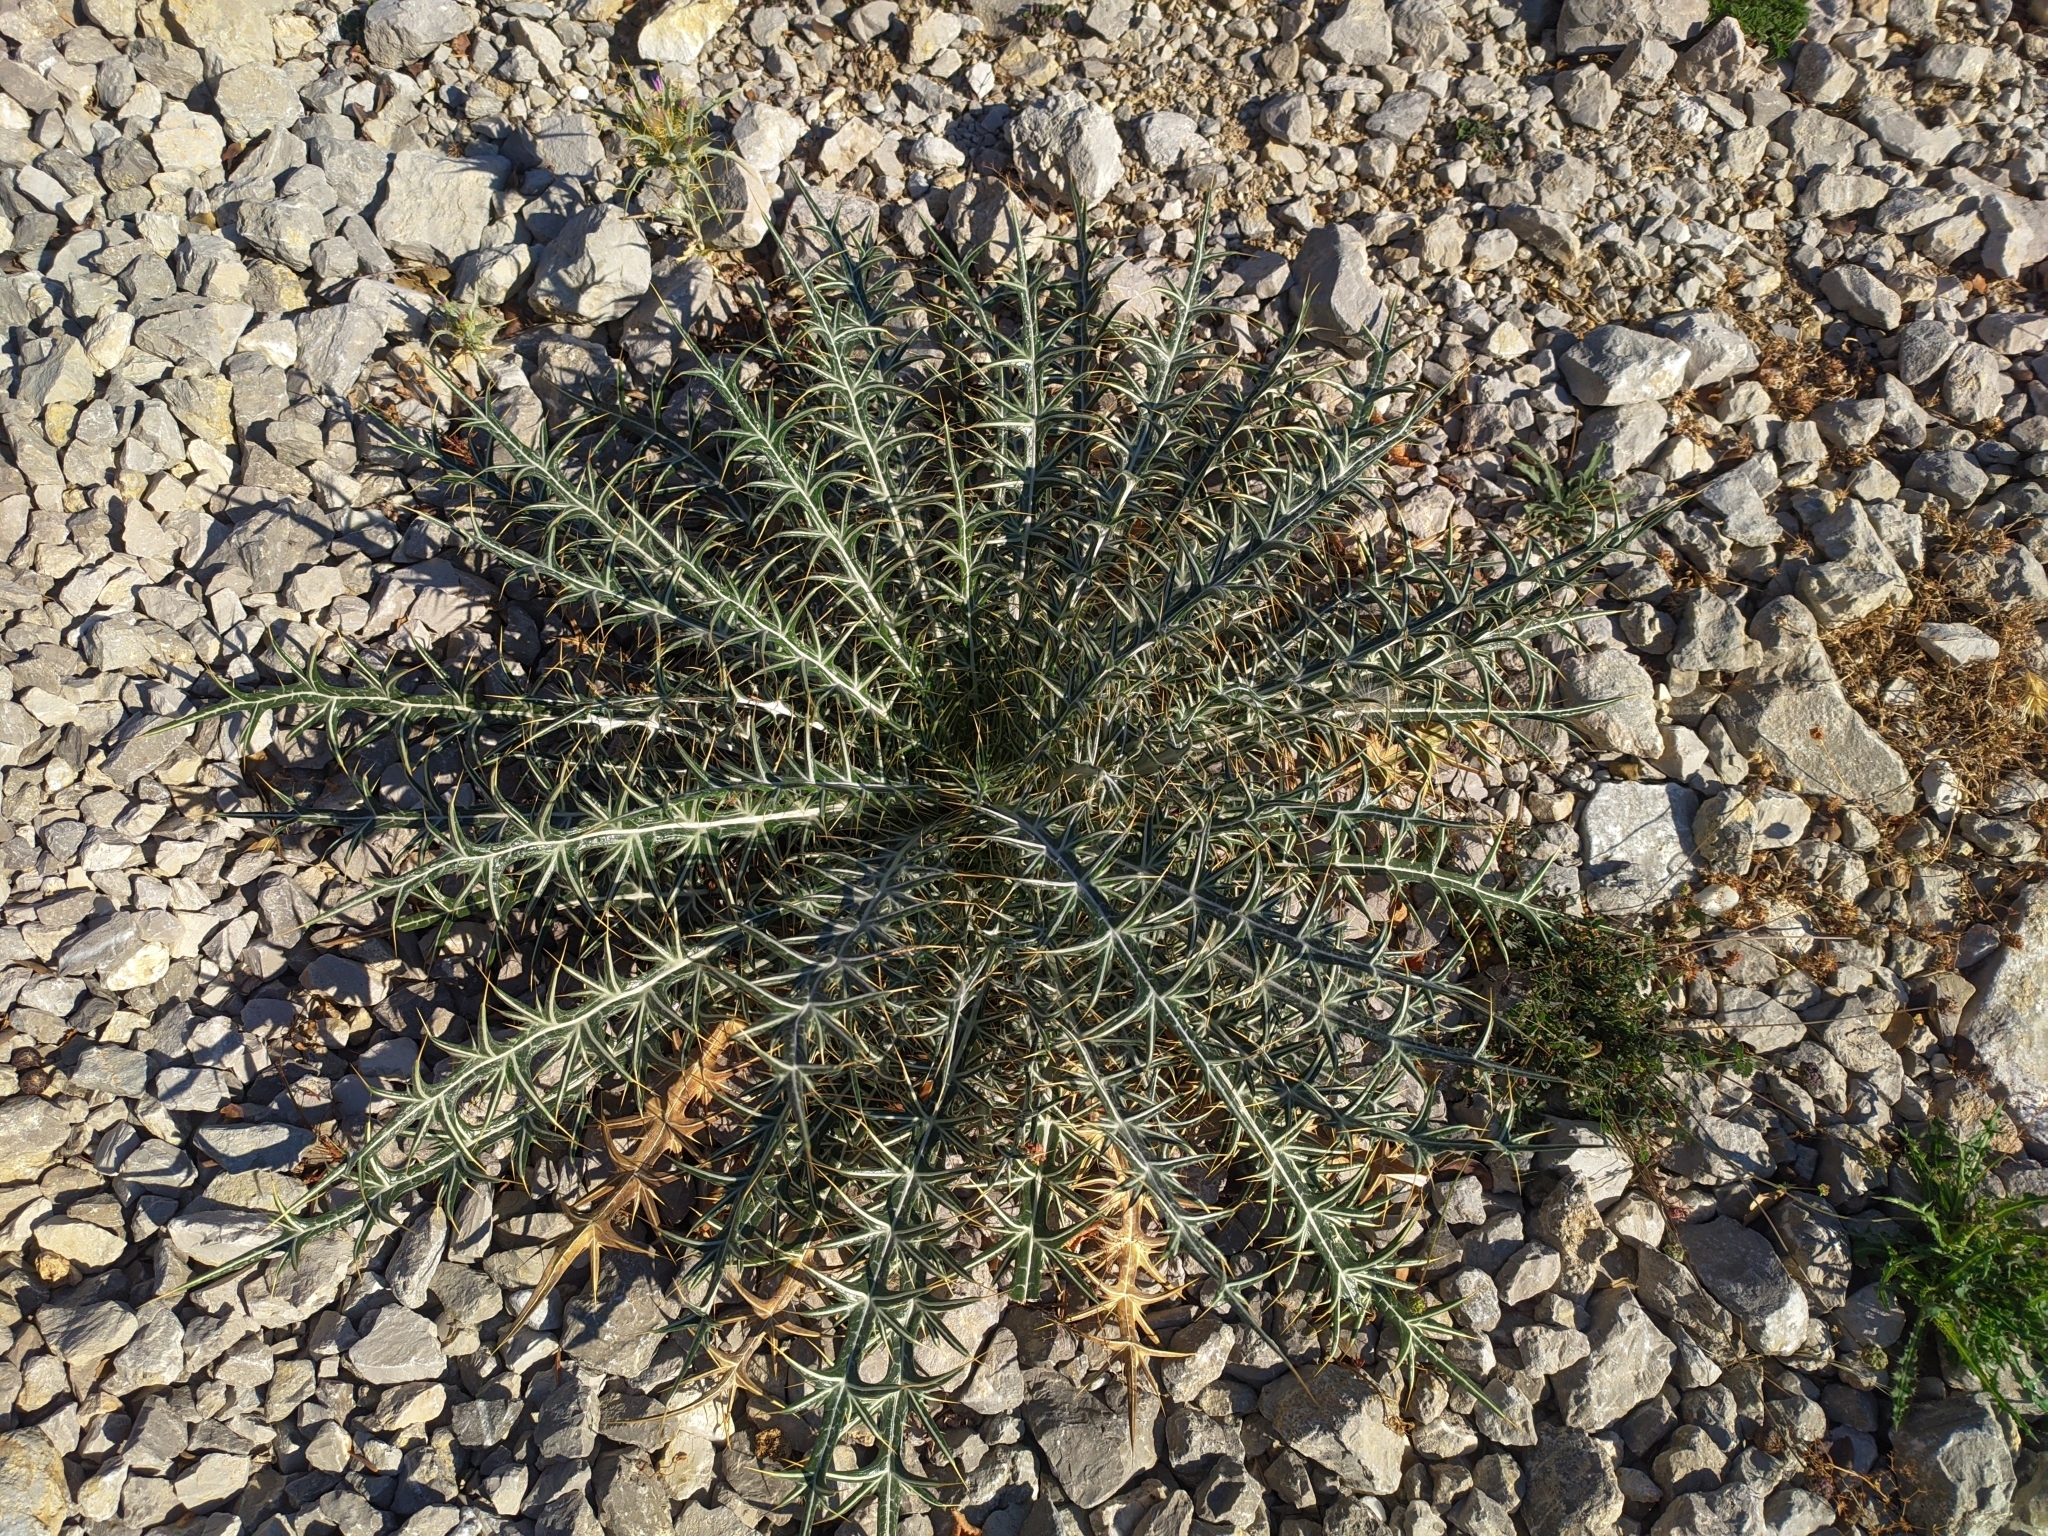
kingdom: Plantae
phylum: Tracheophyta
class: Magnoliopsida
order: Asterales
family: Asteraceae
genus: Ptilostemon
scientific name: Ptilostemon afer
